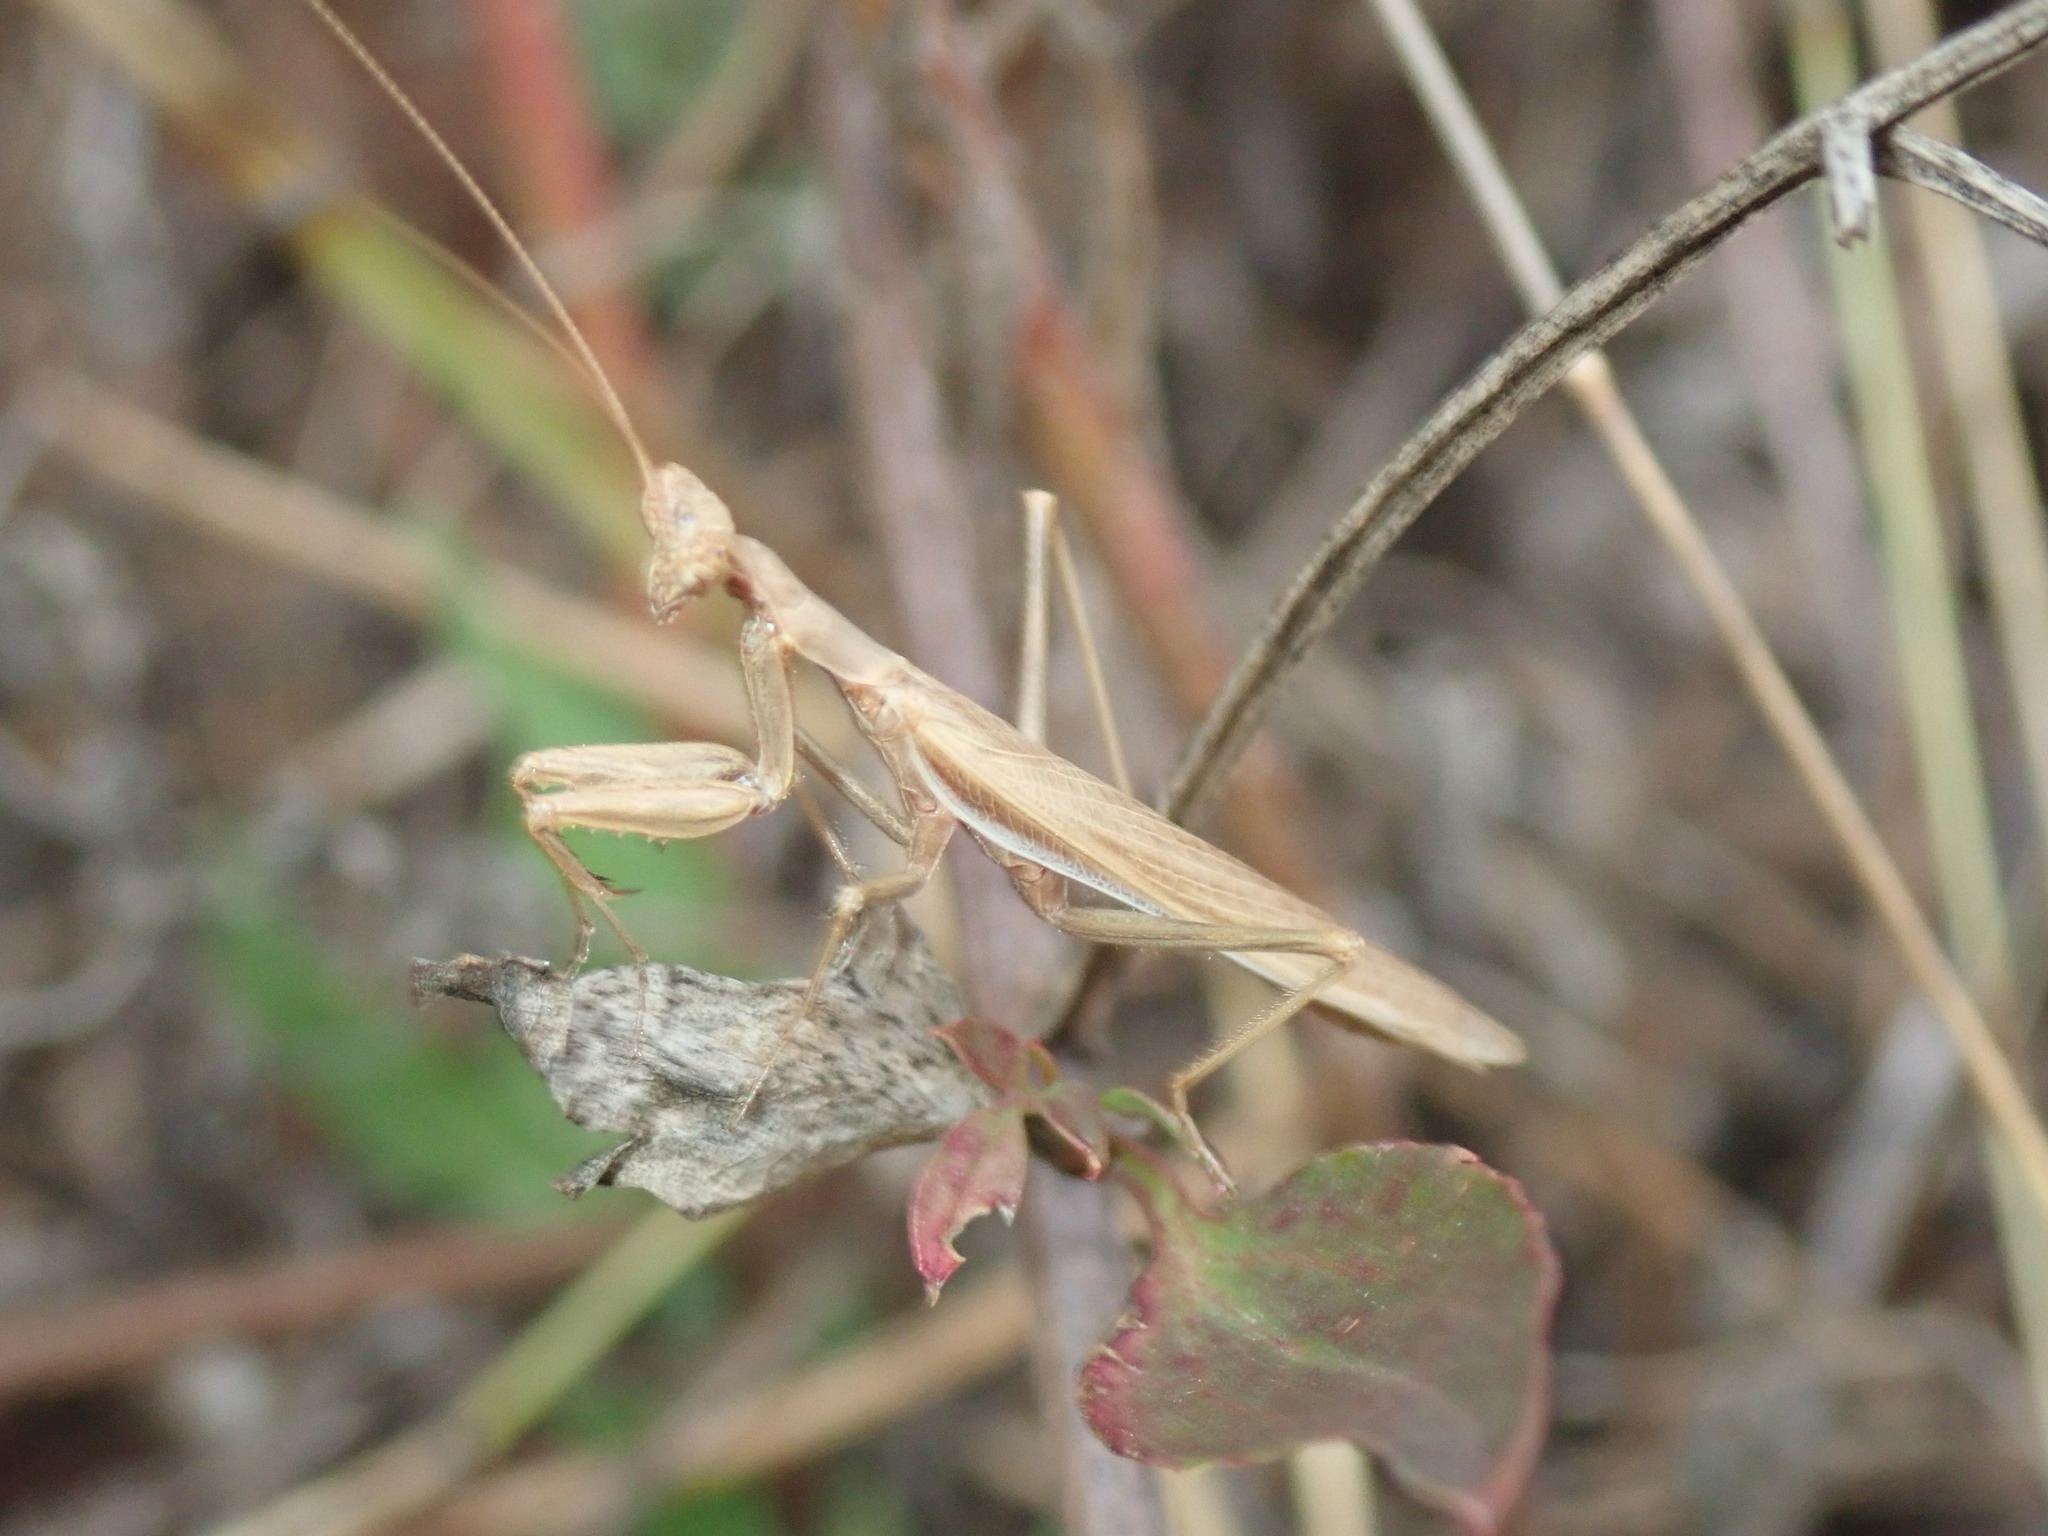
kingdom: Animalia
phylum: Arthropoda
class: Insecta
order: Mantodea
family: Amelidae
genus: Ameles
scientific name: Ameles decolor
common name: Dwarf mantis
